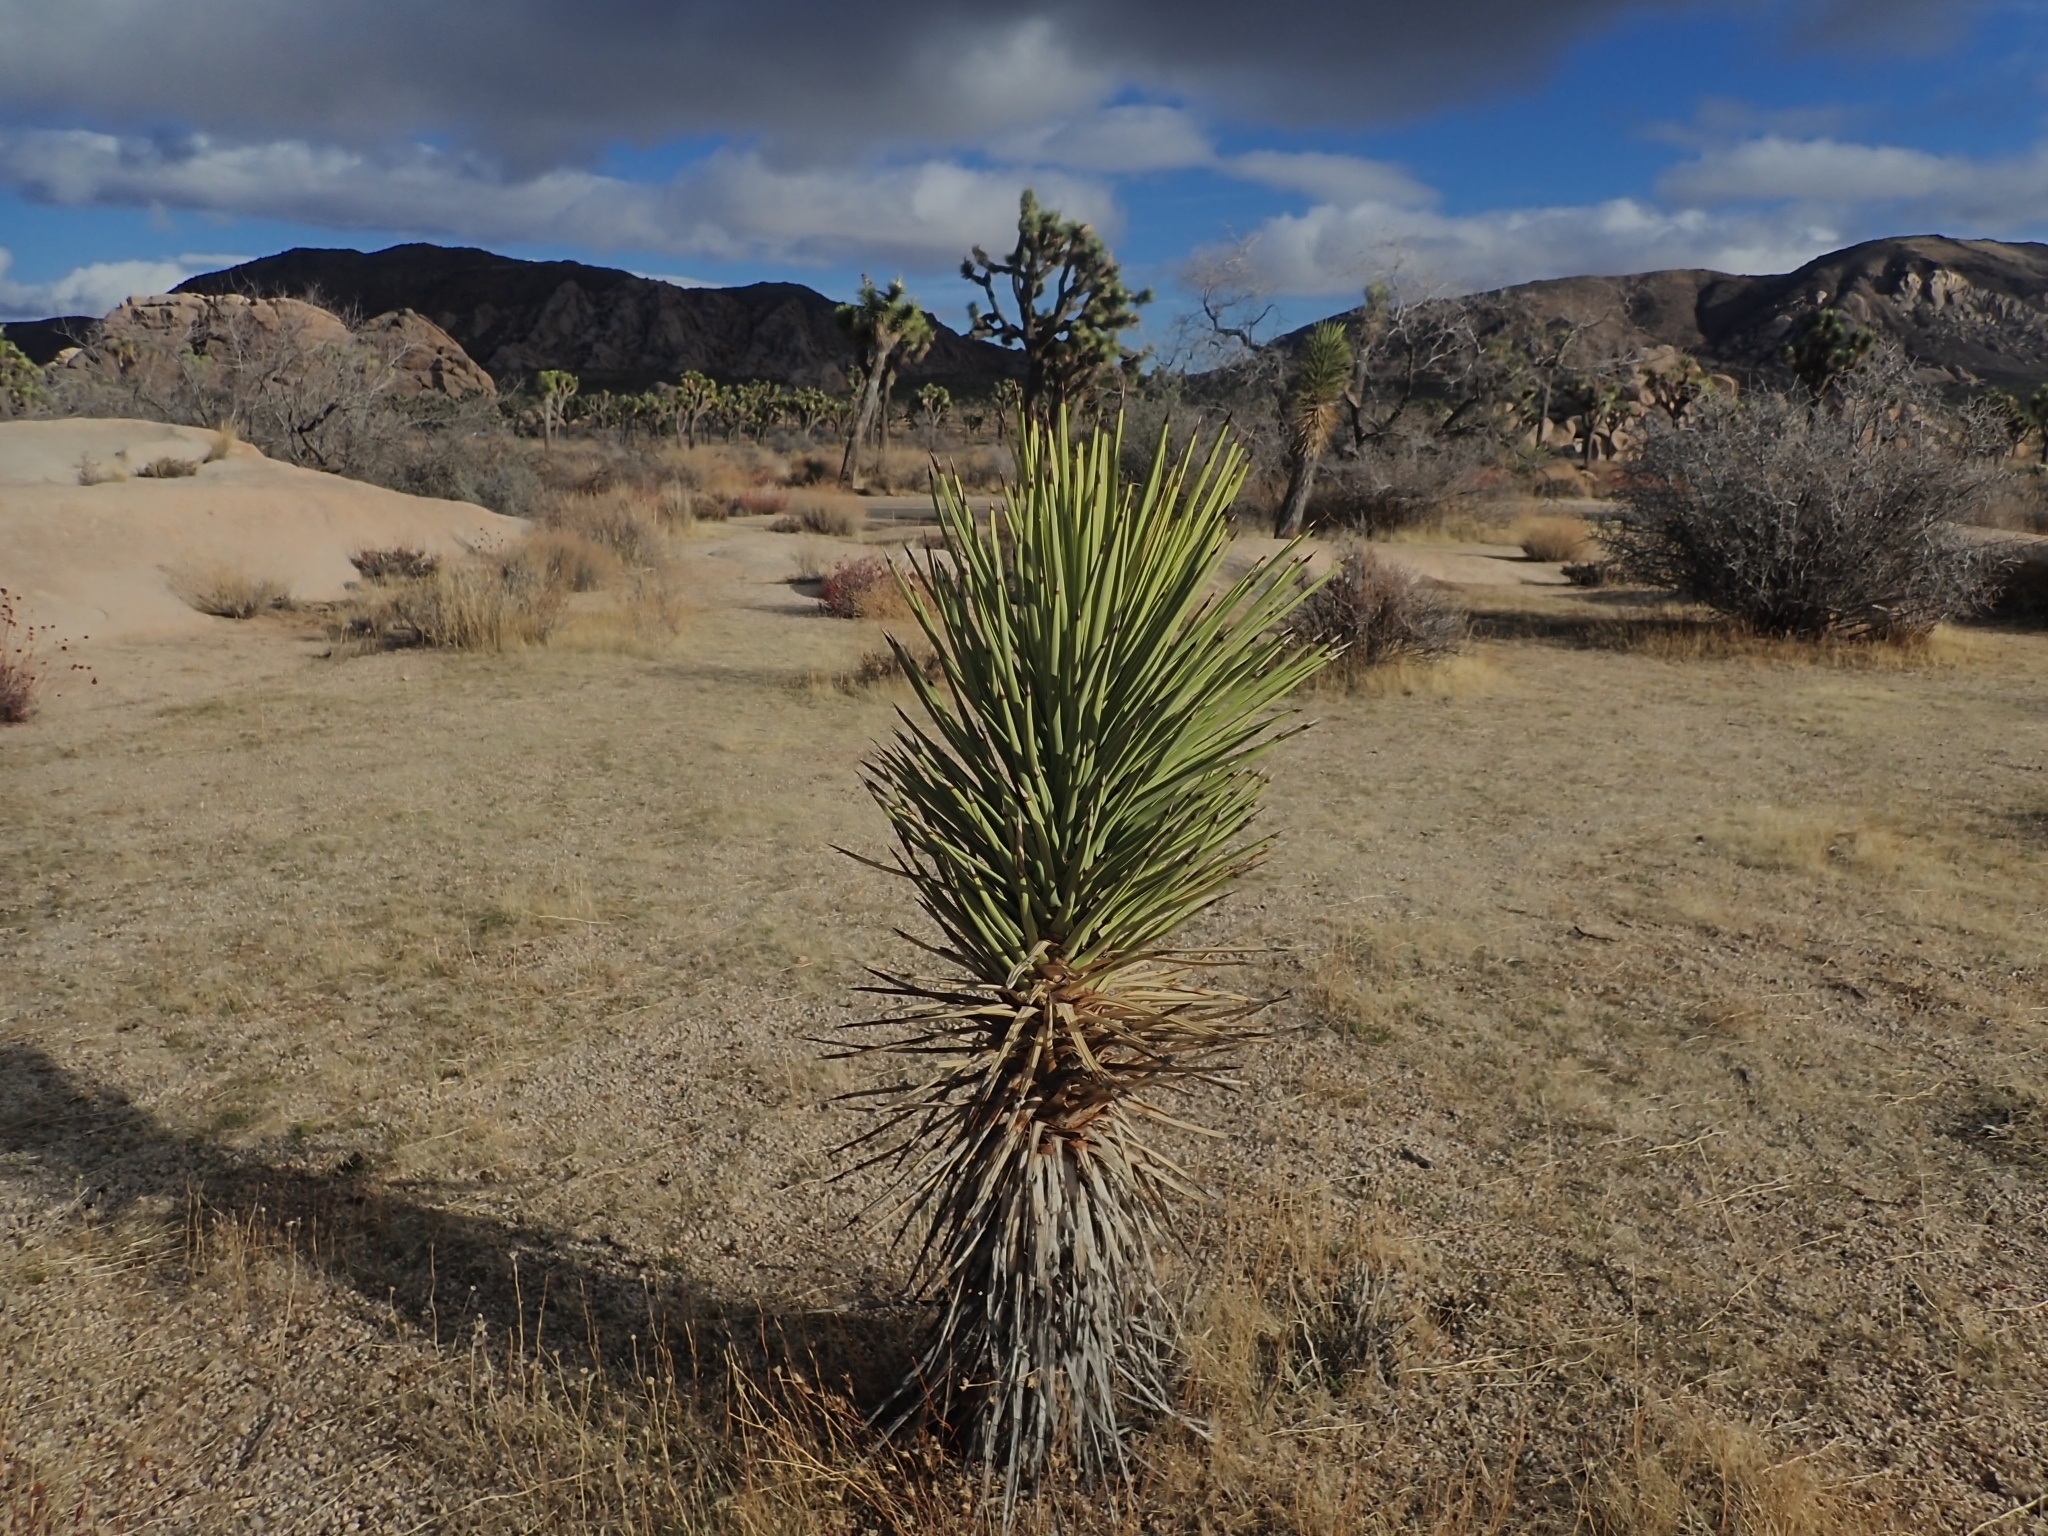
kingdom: Plantae
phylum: Tracheophyta
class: Liliopsida
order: Asparagales
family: Asparagaceae
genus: Yucca
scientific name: Yucca brevifolia
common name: Joshua tree
